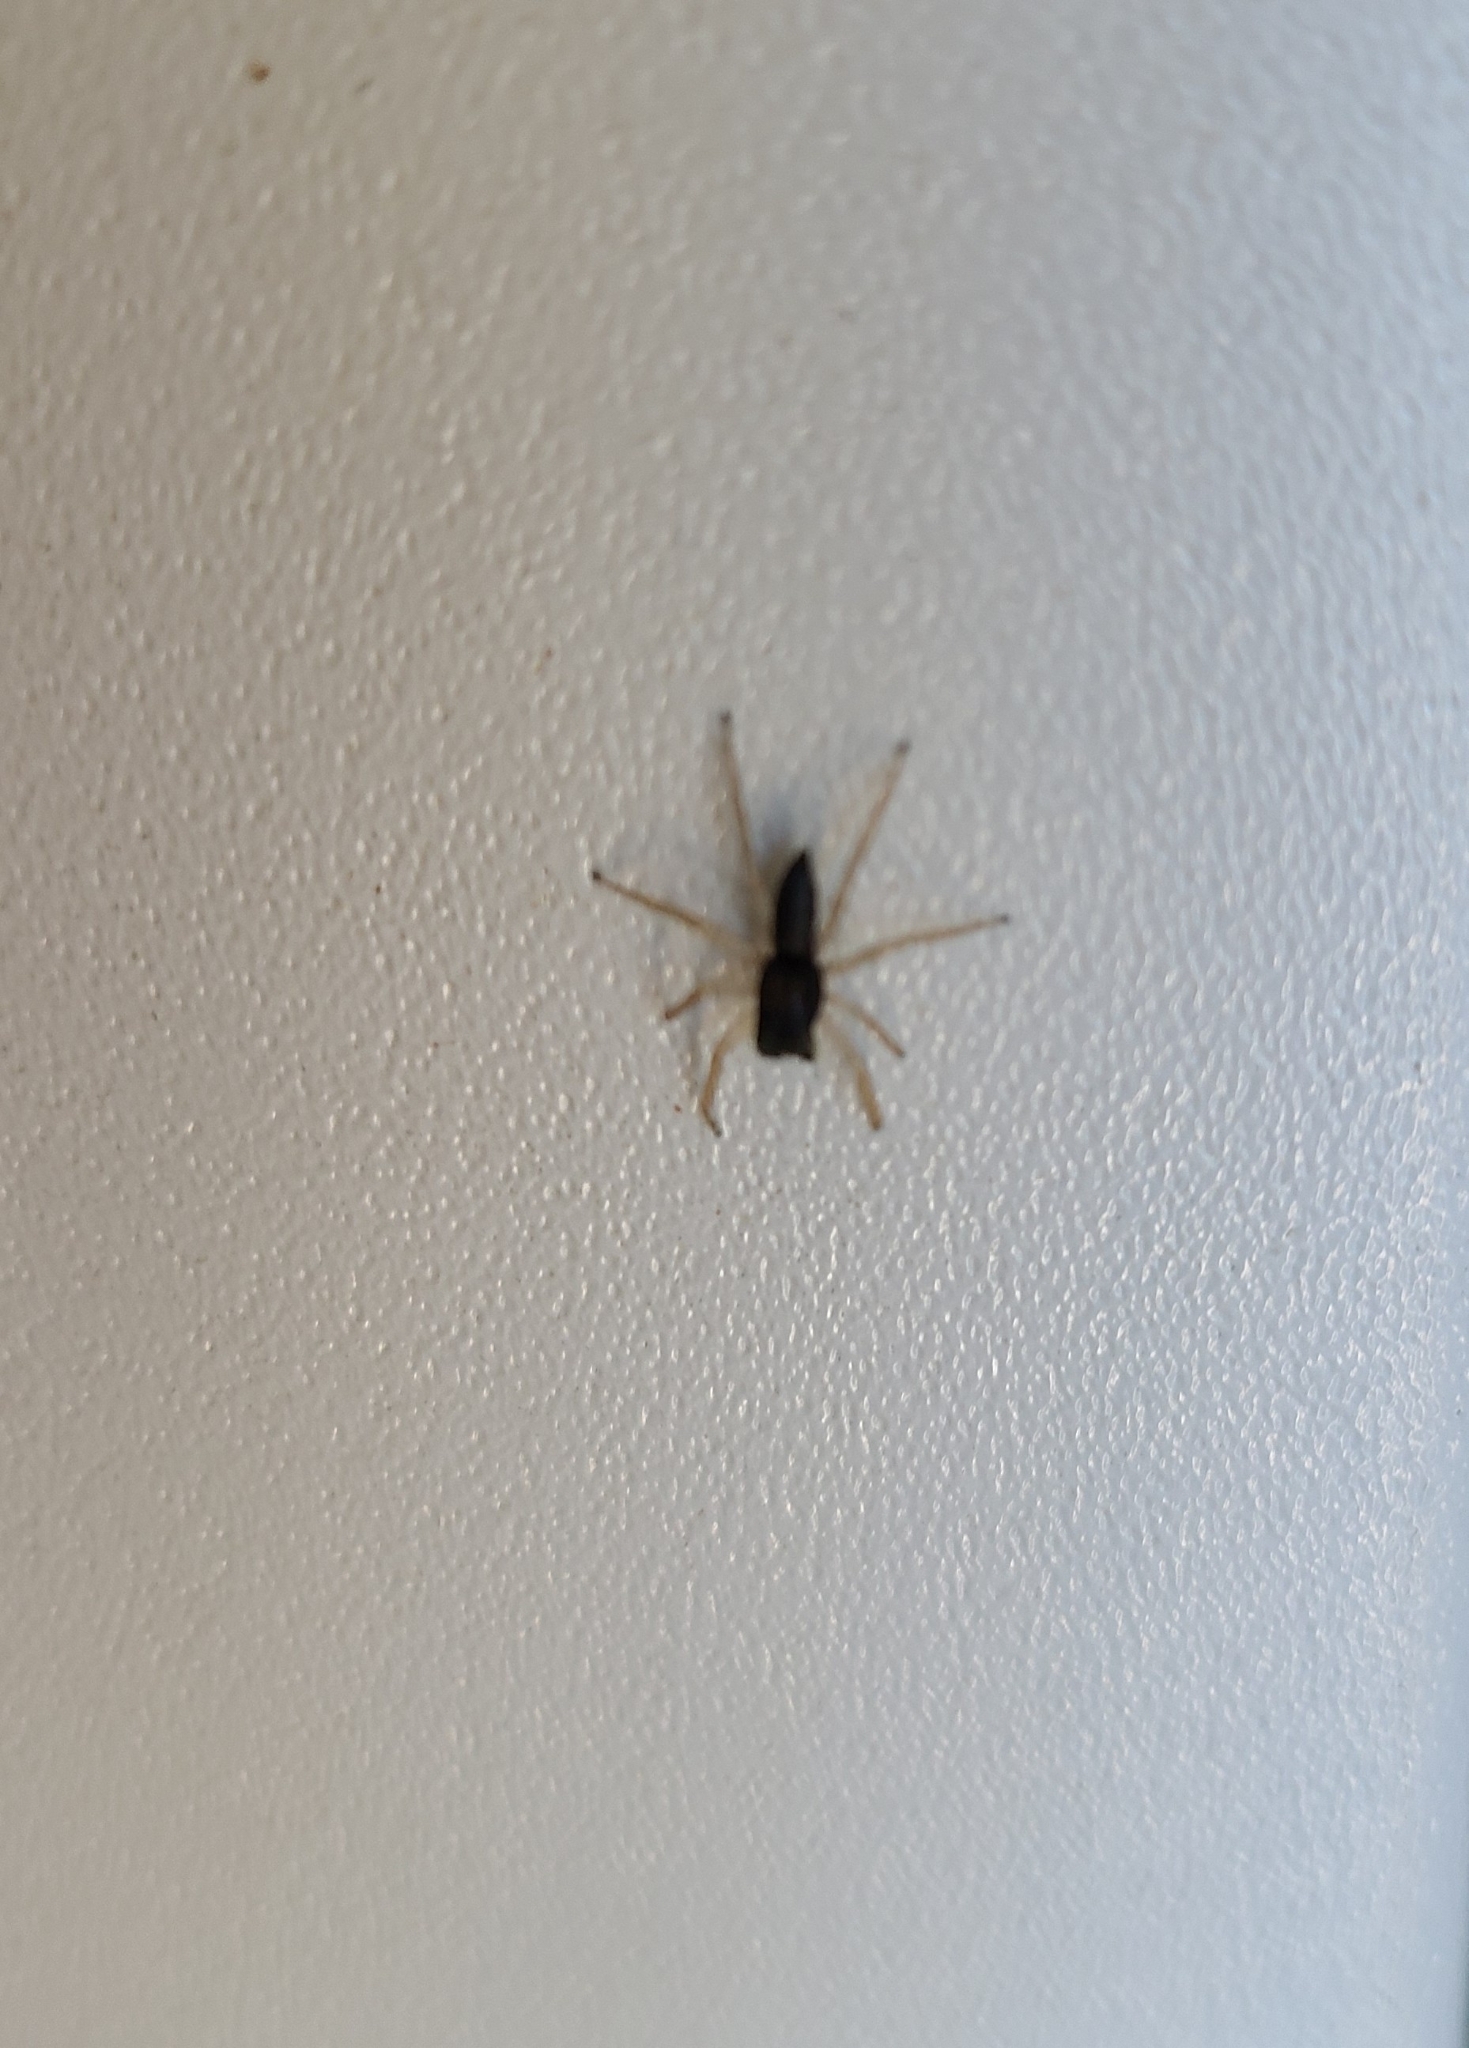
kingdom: Animalia
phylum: Arthropoda
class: Arachnida
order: Araneae
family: Salticidae
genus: Maevia
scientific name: Maevia inclemens
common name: Dimorphic jumper
